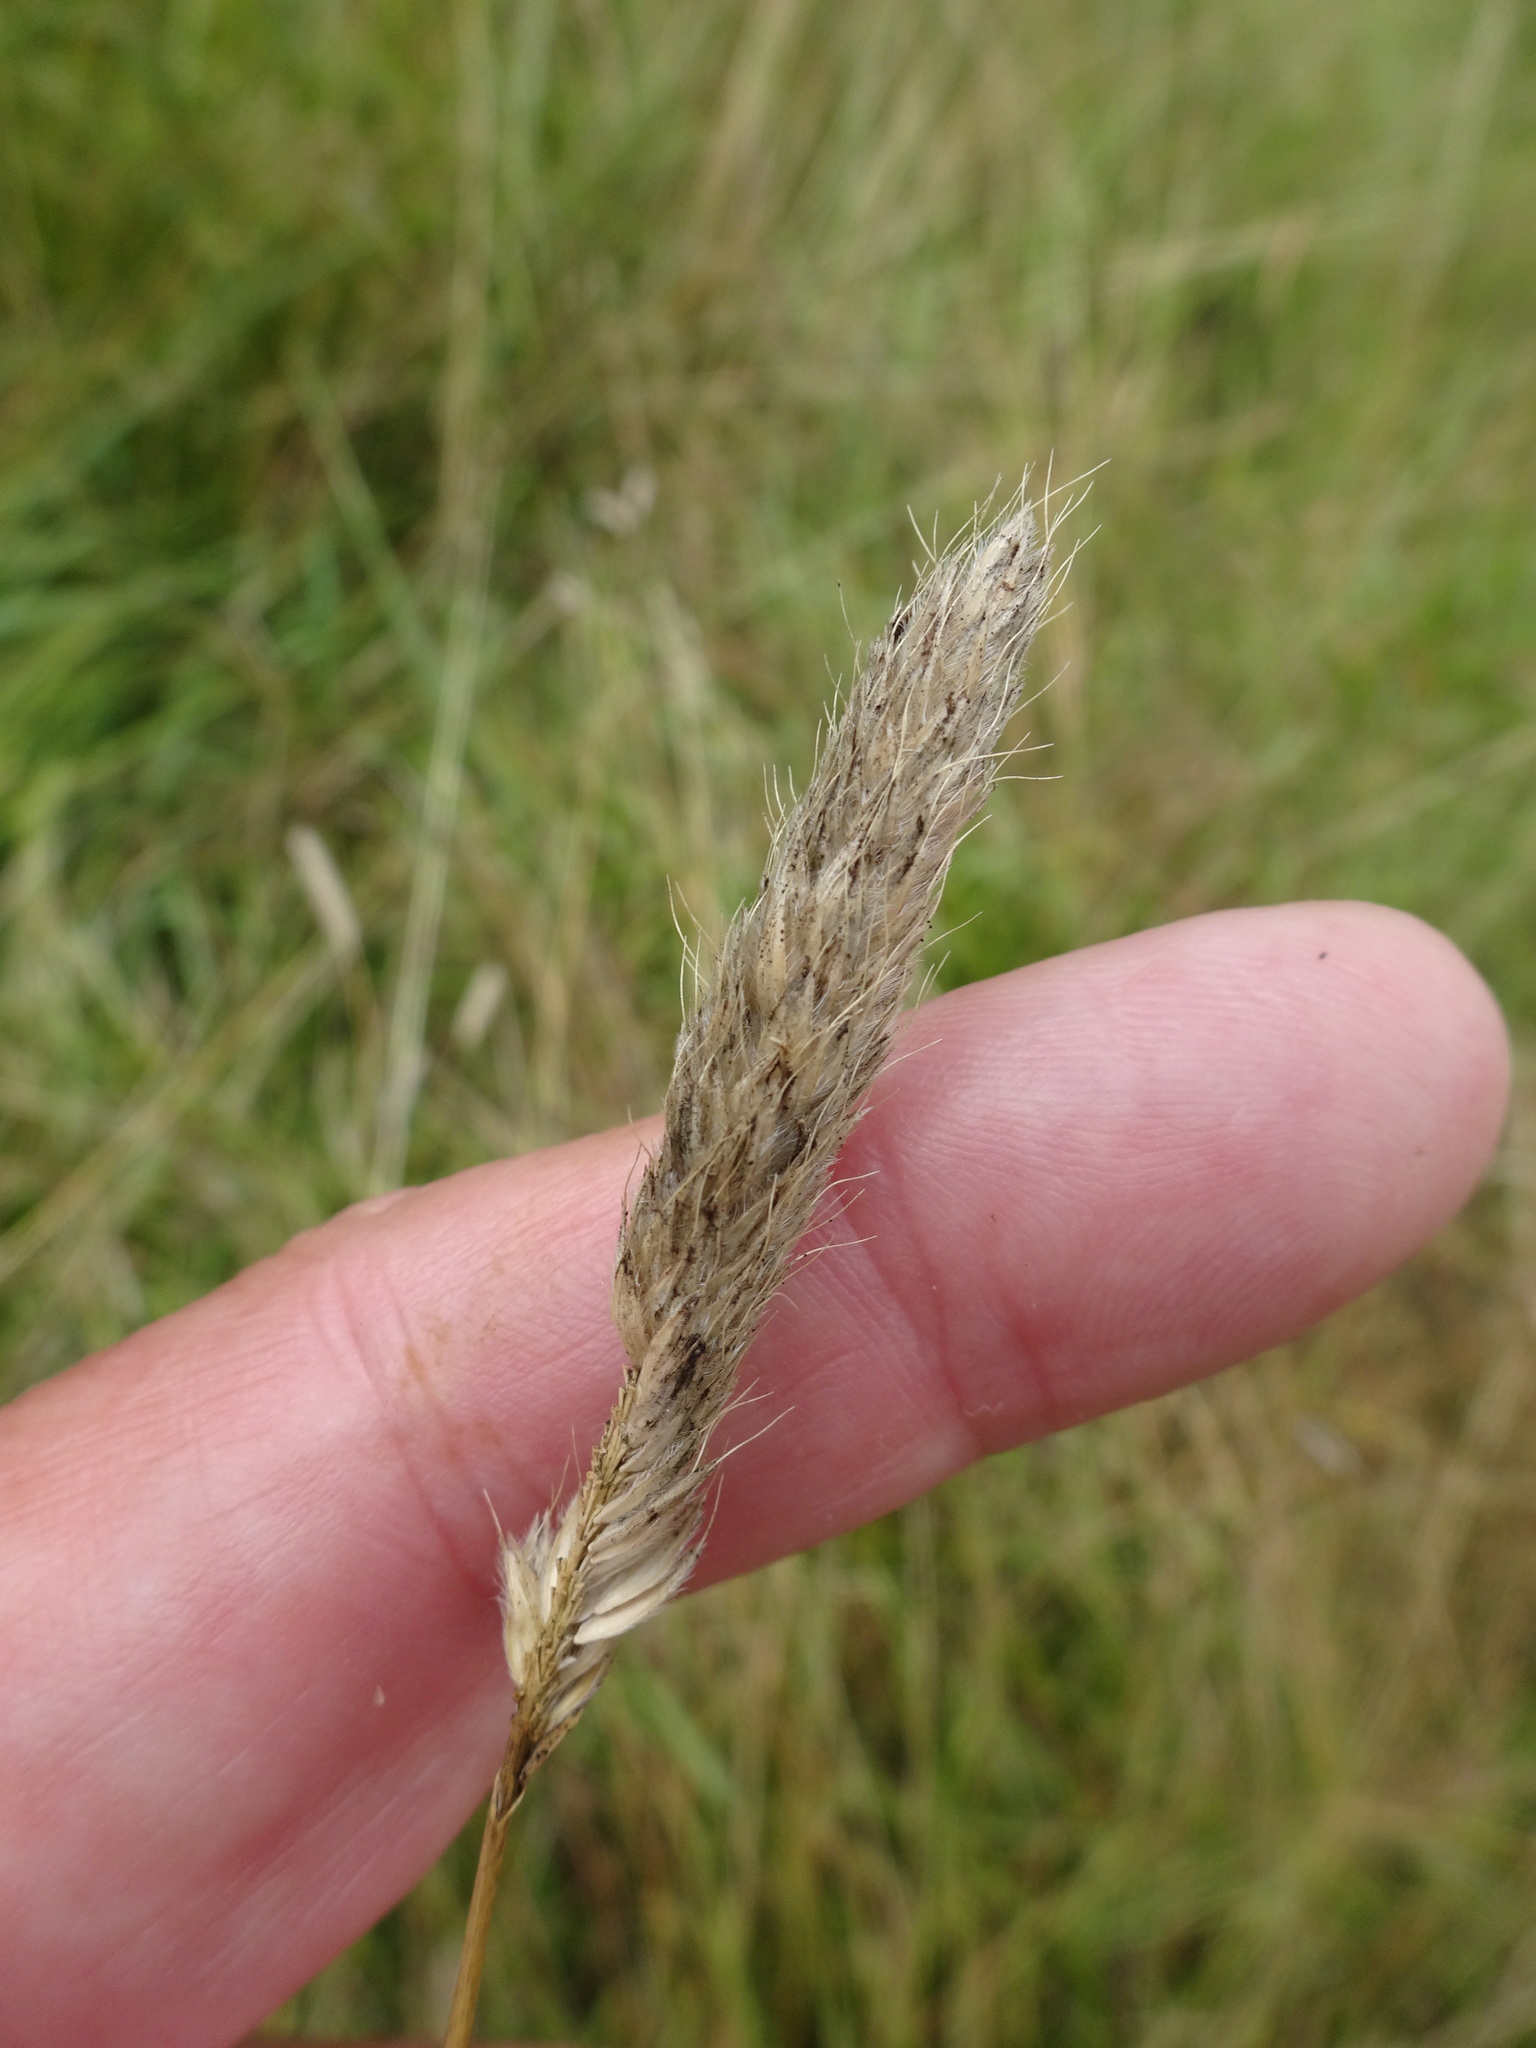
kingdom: Plantae
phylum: Tracheophyta
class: Liliopsida
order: Poales
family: Poaceae
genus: Alopecurus
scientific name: Alopecurus pratensis
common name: Meadow foxtail
